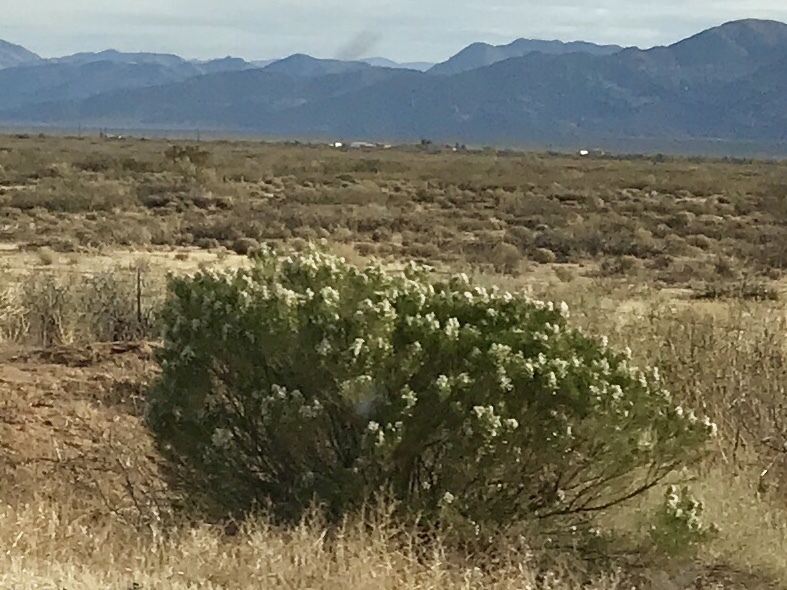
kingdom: Plantae
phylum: Tracheophyta
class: Magnoliopsida
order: Asterales
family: Asteraceae
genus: Baccharis
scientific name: Baccharis sarothroides
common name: Desert-broom
